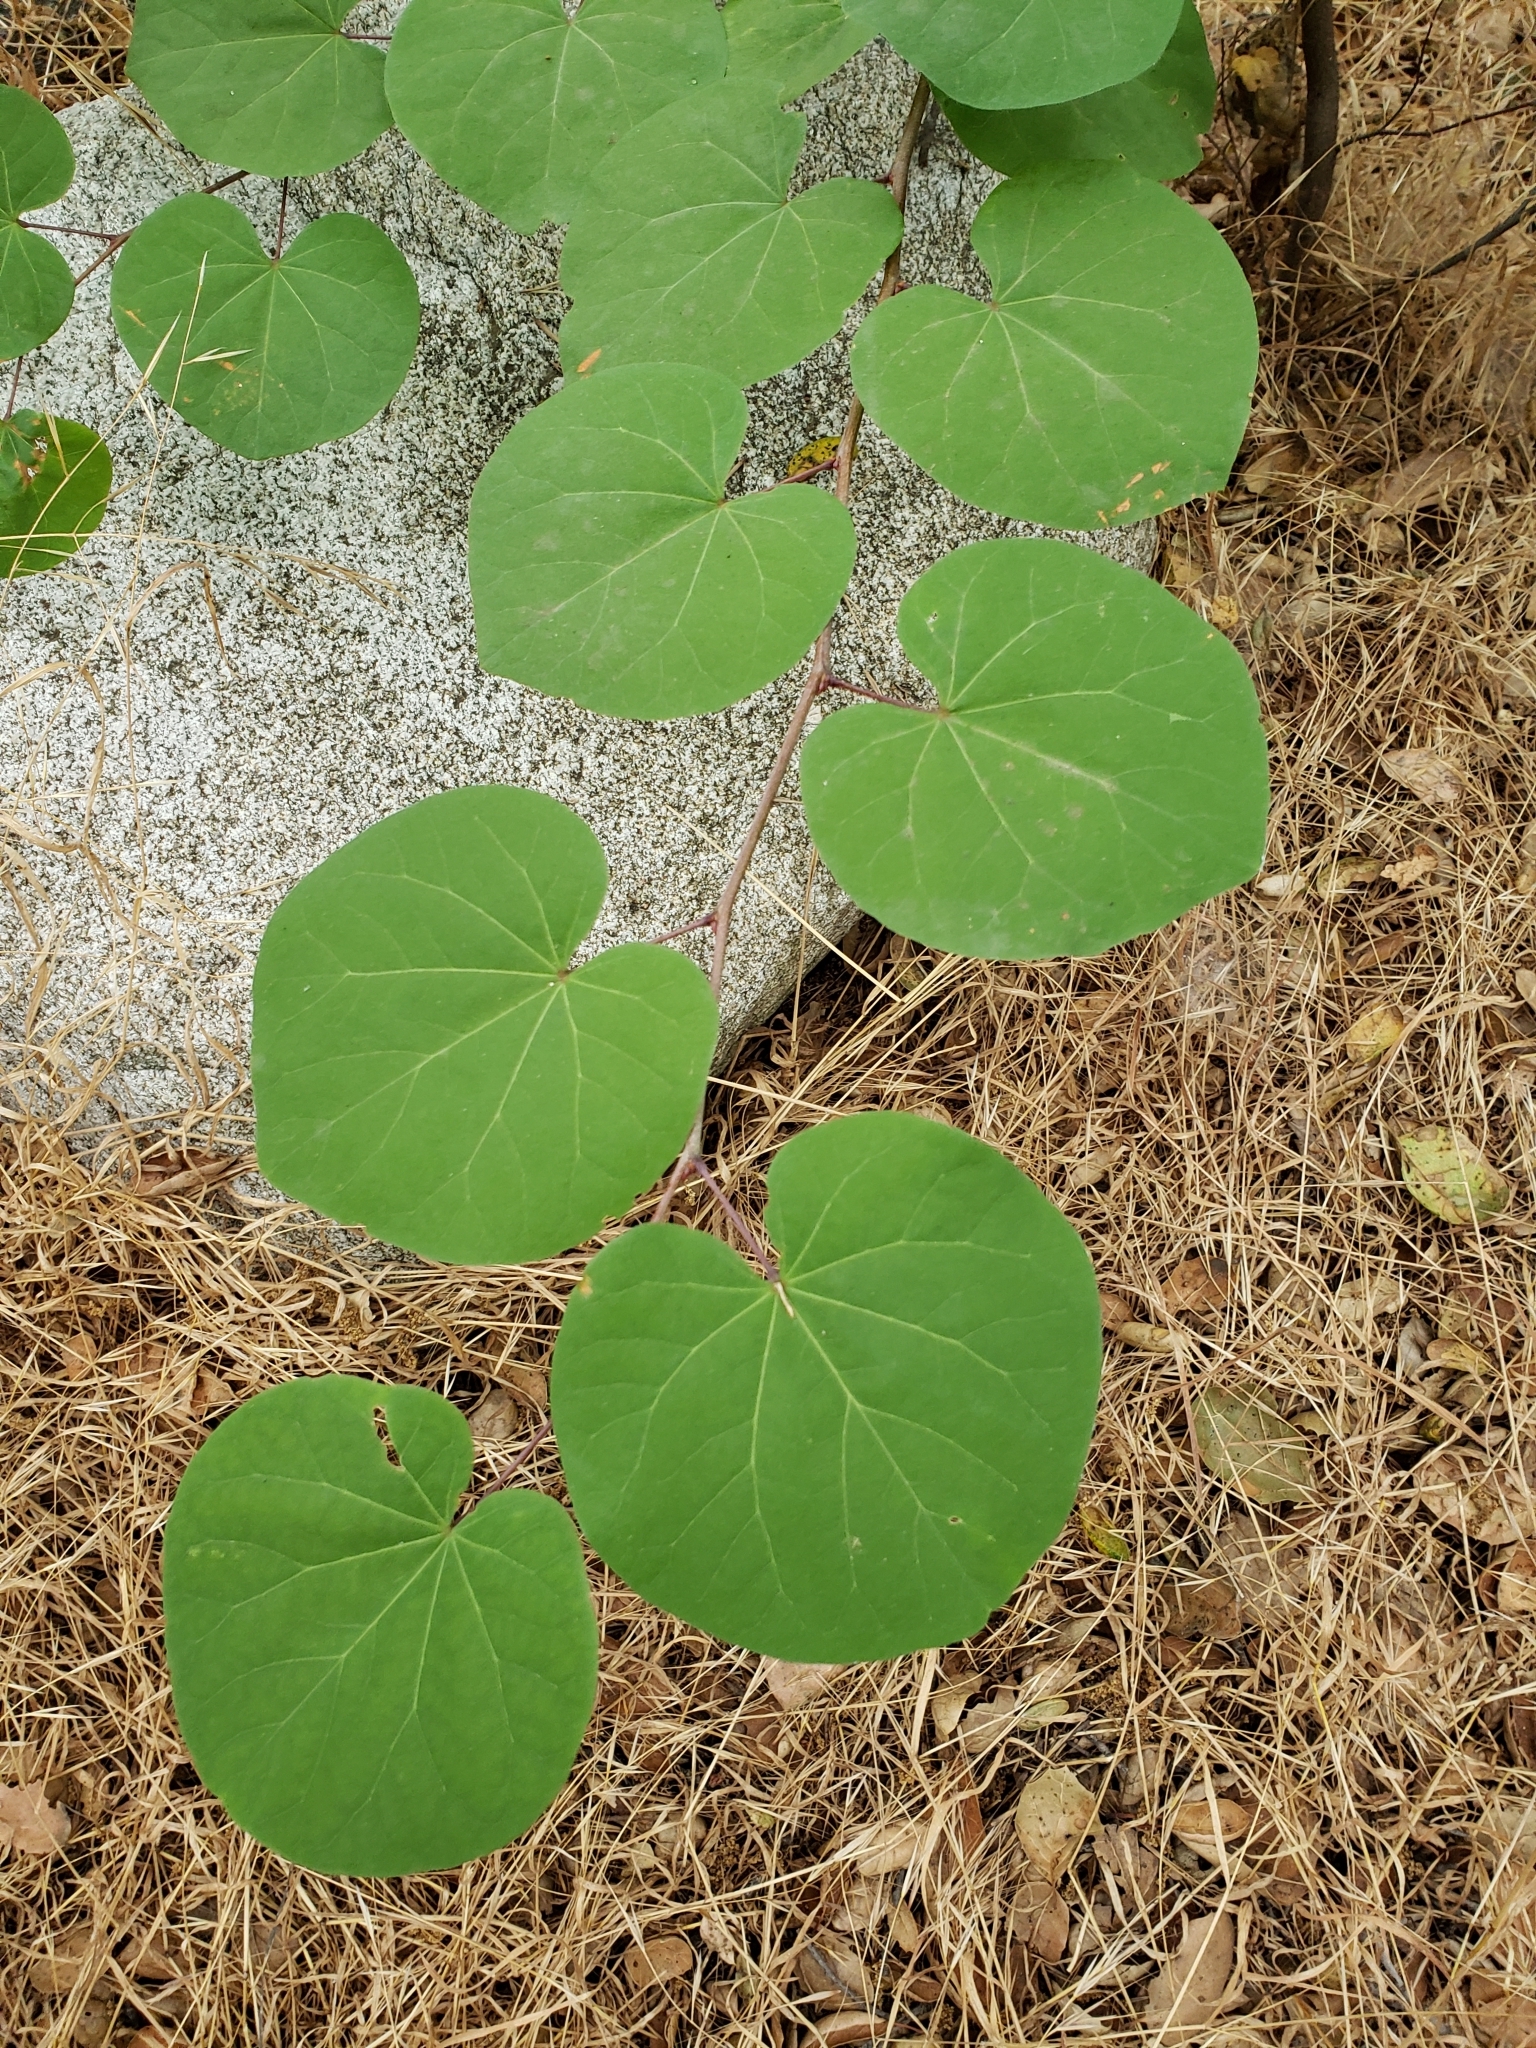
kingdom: Plantae
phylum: Tracheophyta
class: Magnoliopsida
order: Fabales
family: Fabaceae
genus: Cercis
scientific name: Cercis occidentalis
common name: California redbud
